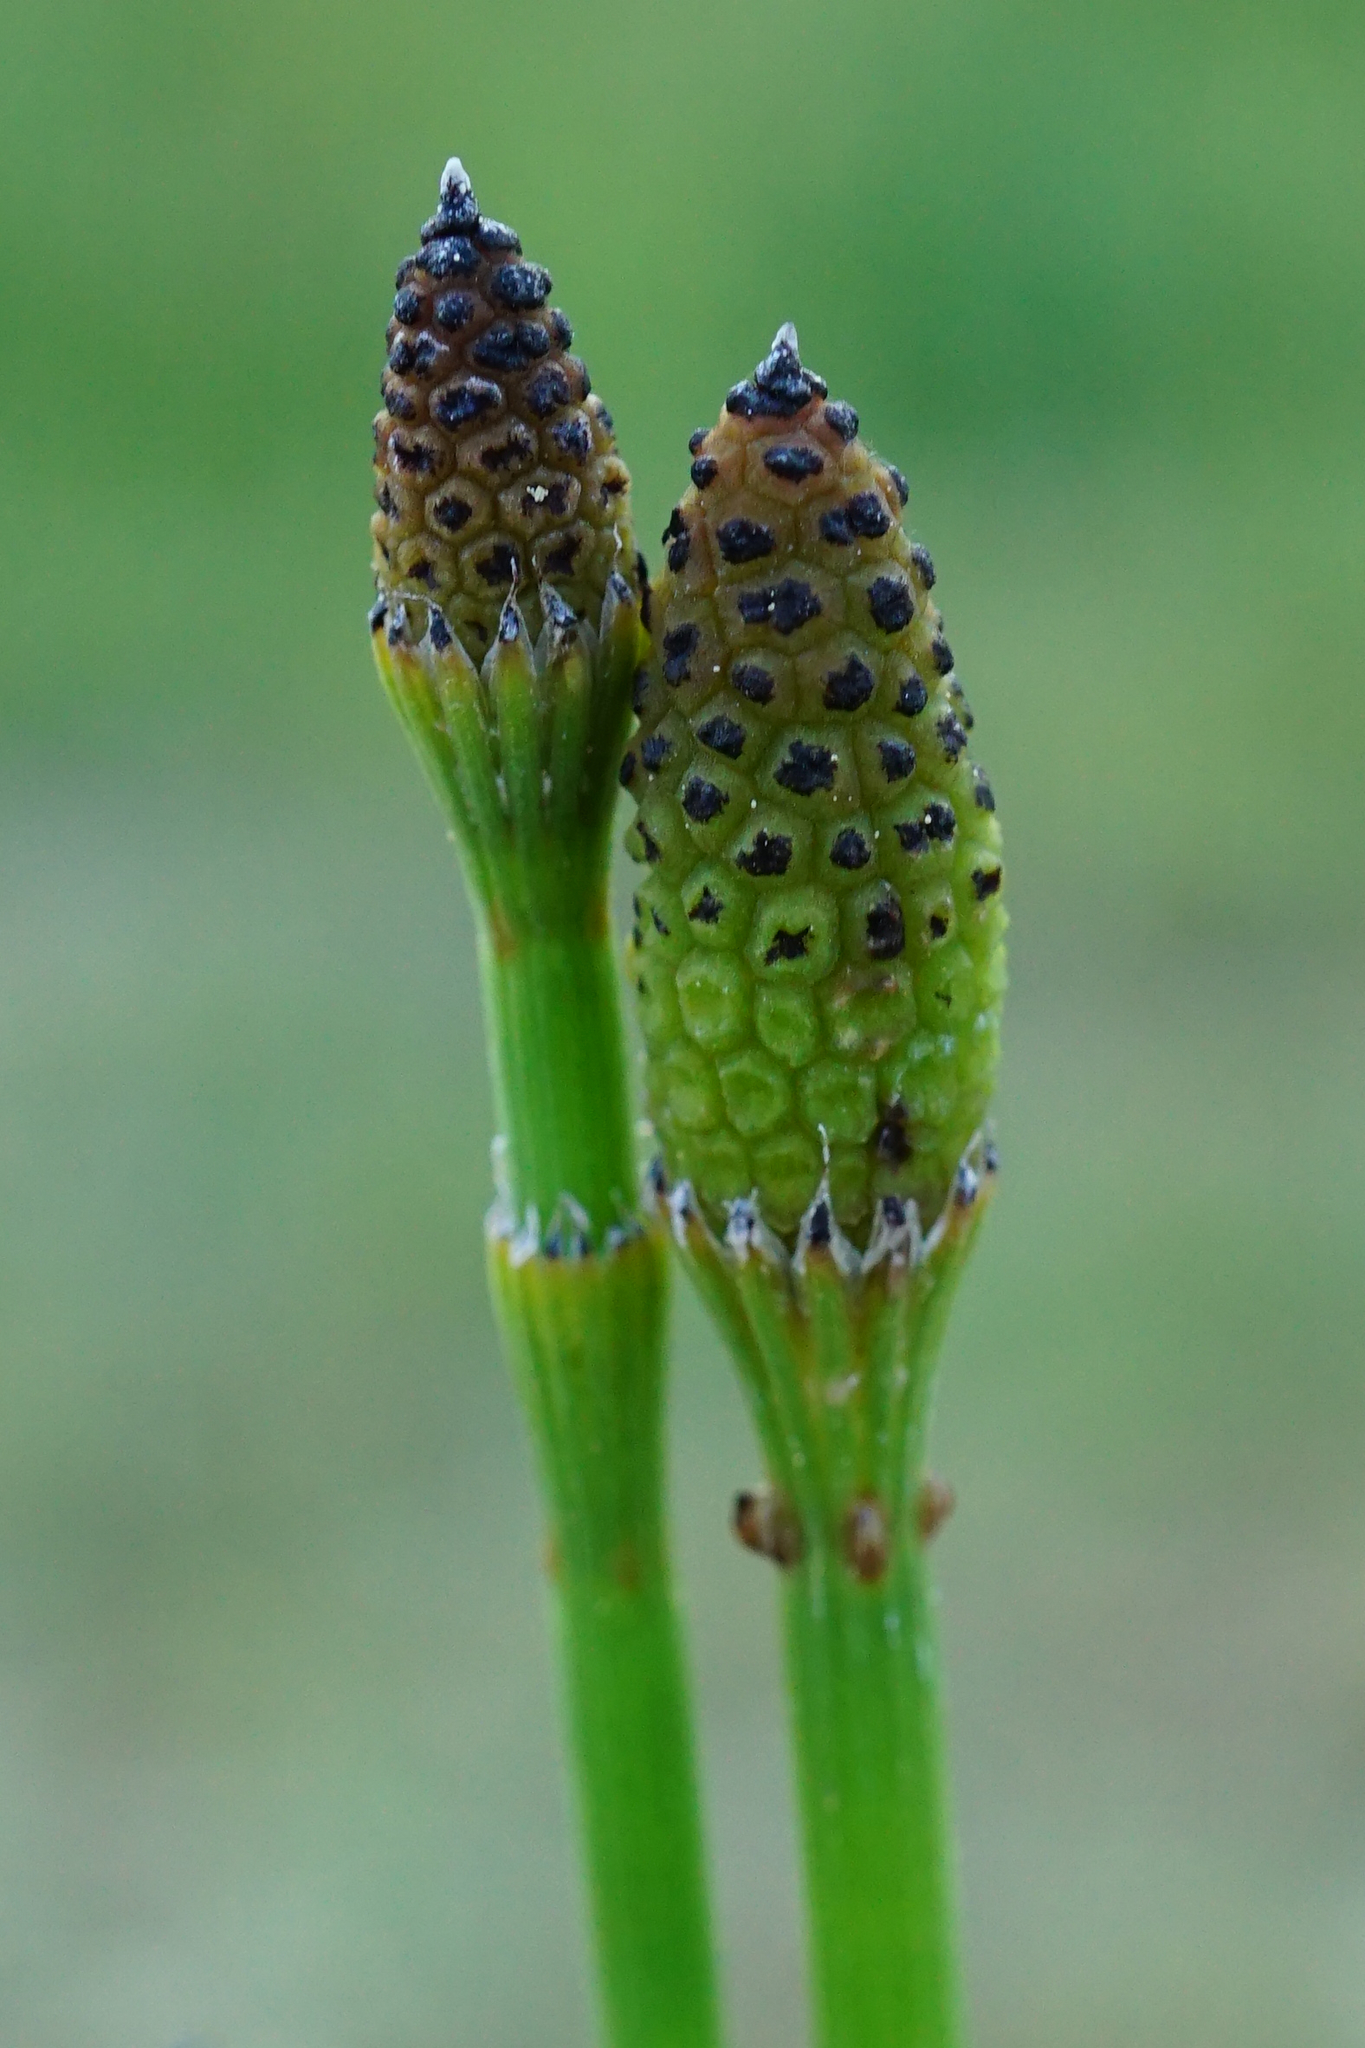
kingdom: Plantae
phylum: Tracheophyta
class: Polypodiopsida
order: Equisetales
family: Equisetaceae
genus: Equisetum
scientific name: Equisetum ramosissimum
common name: Branched horsetail
